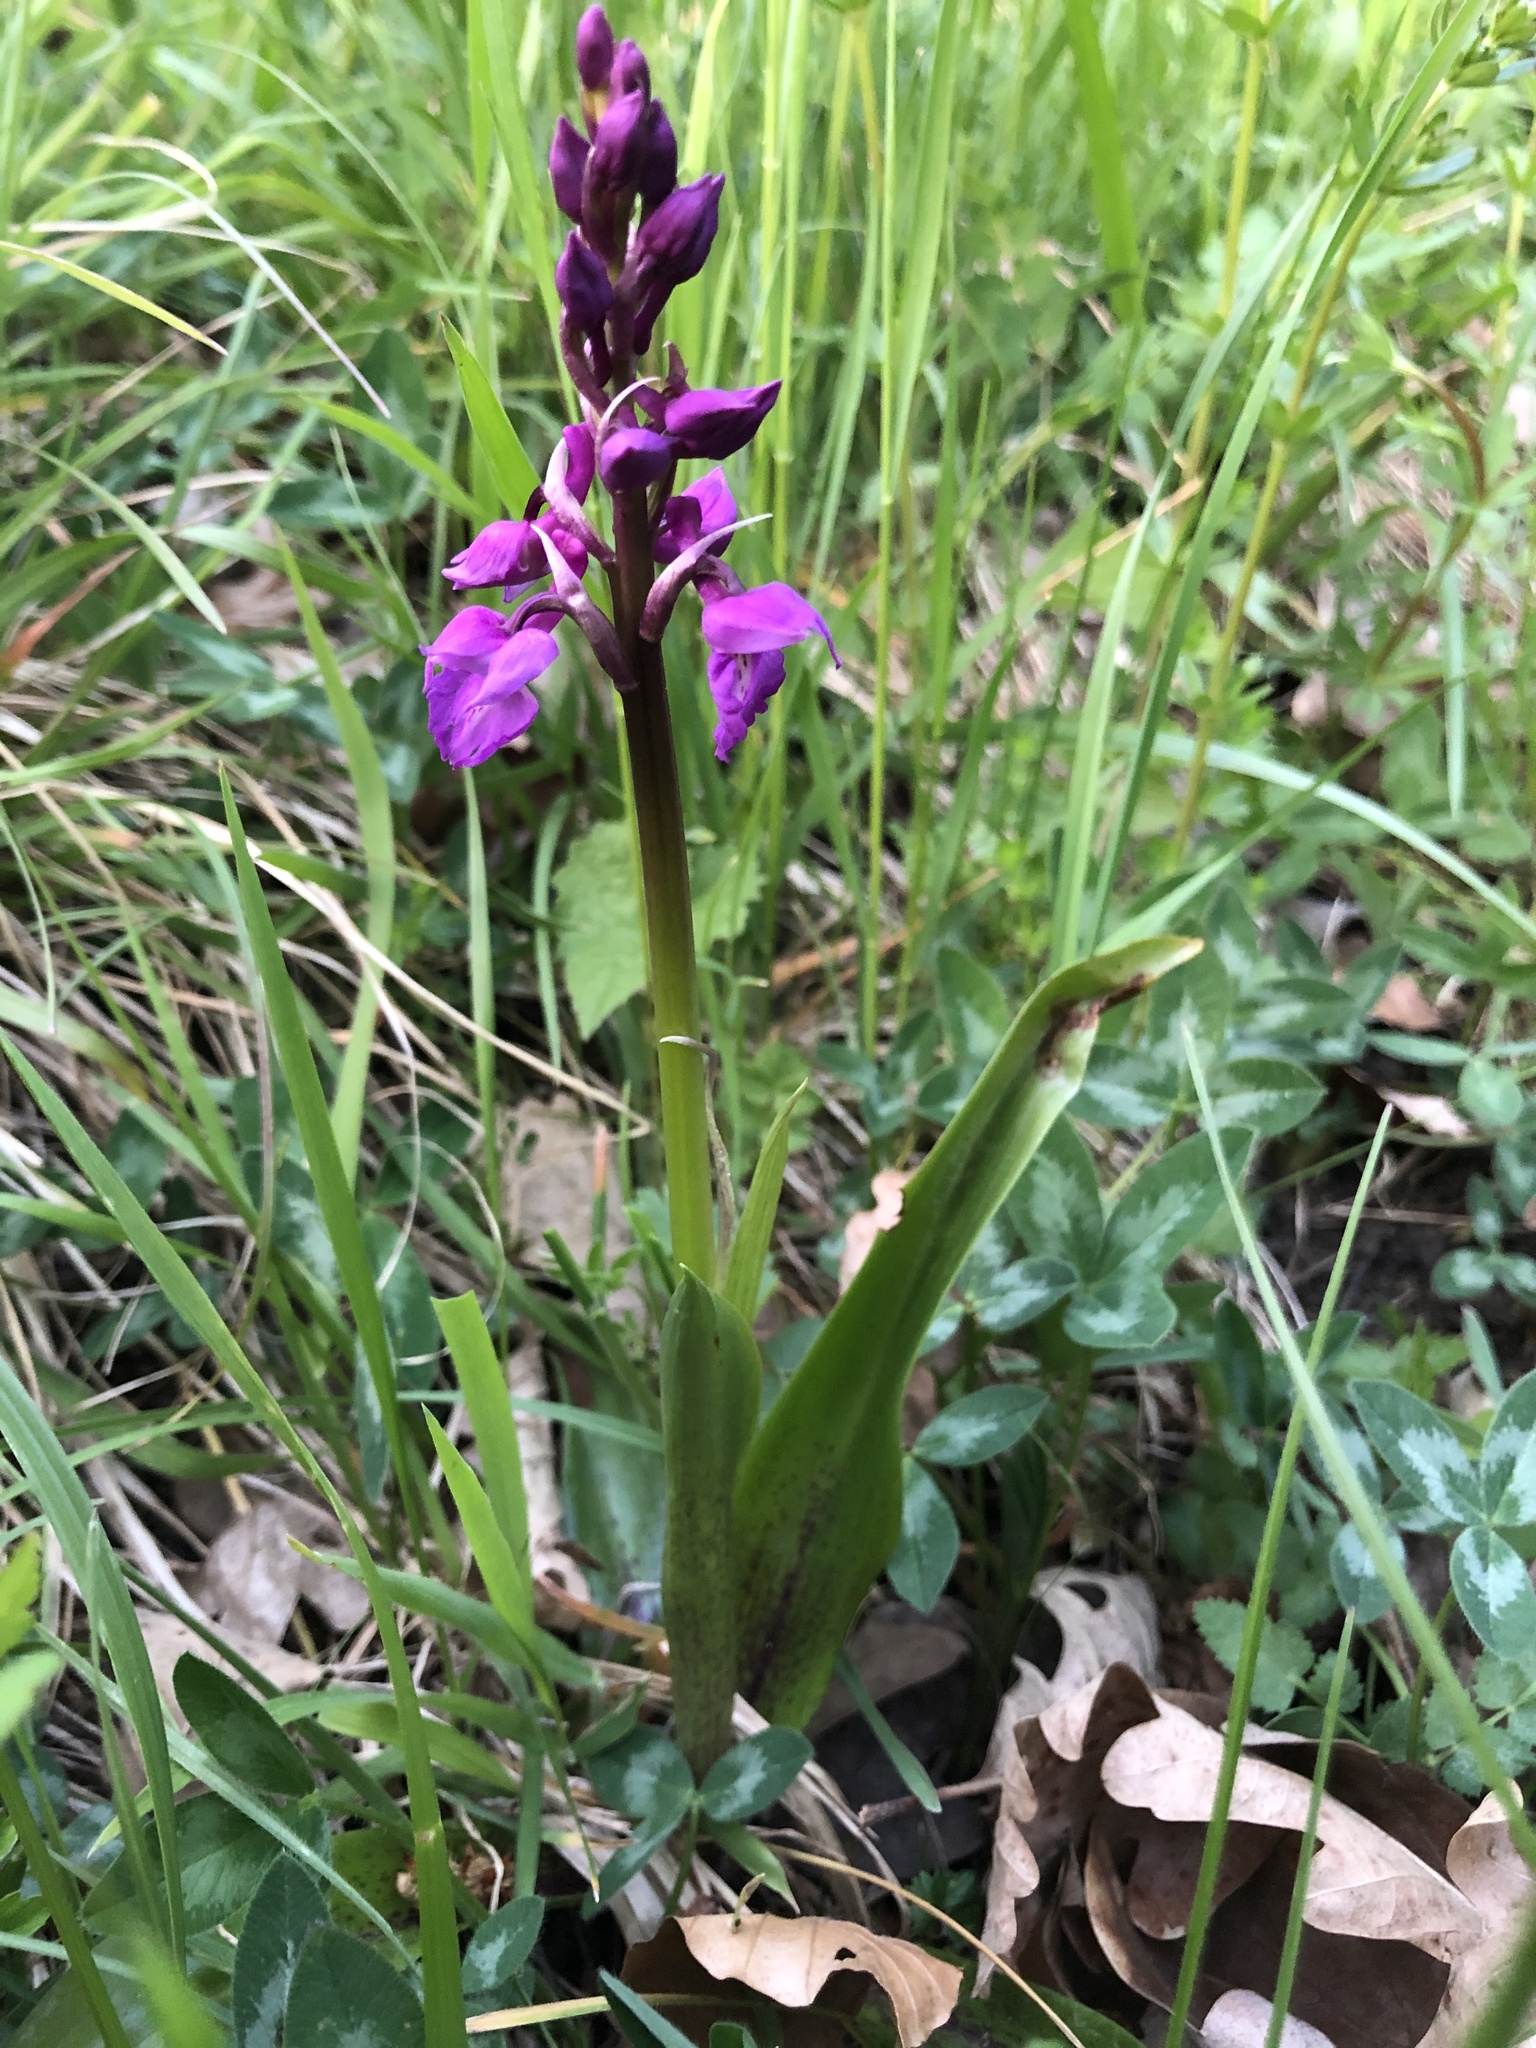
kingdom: Plantae
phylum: Tracheophyta
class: Liliopsida
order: Asparagales
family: Orchidaceae
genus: Orchis
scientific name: Orchis mascula
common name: Early-purple orchid
